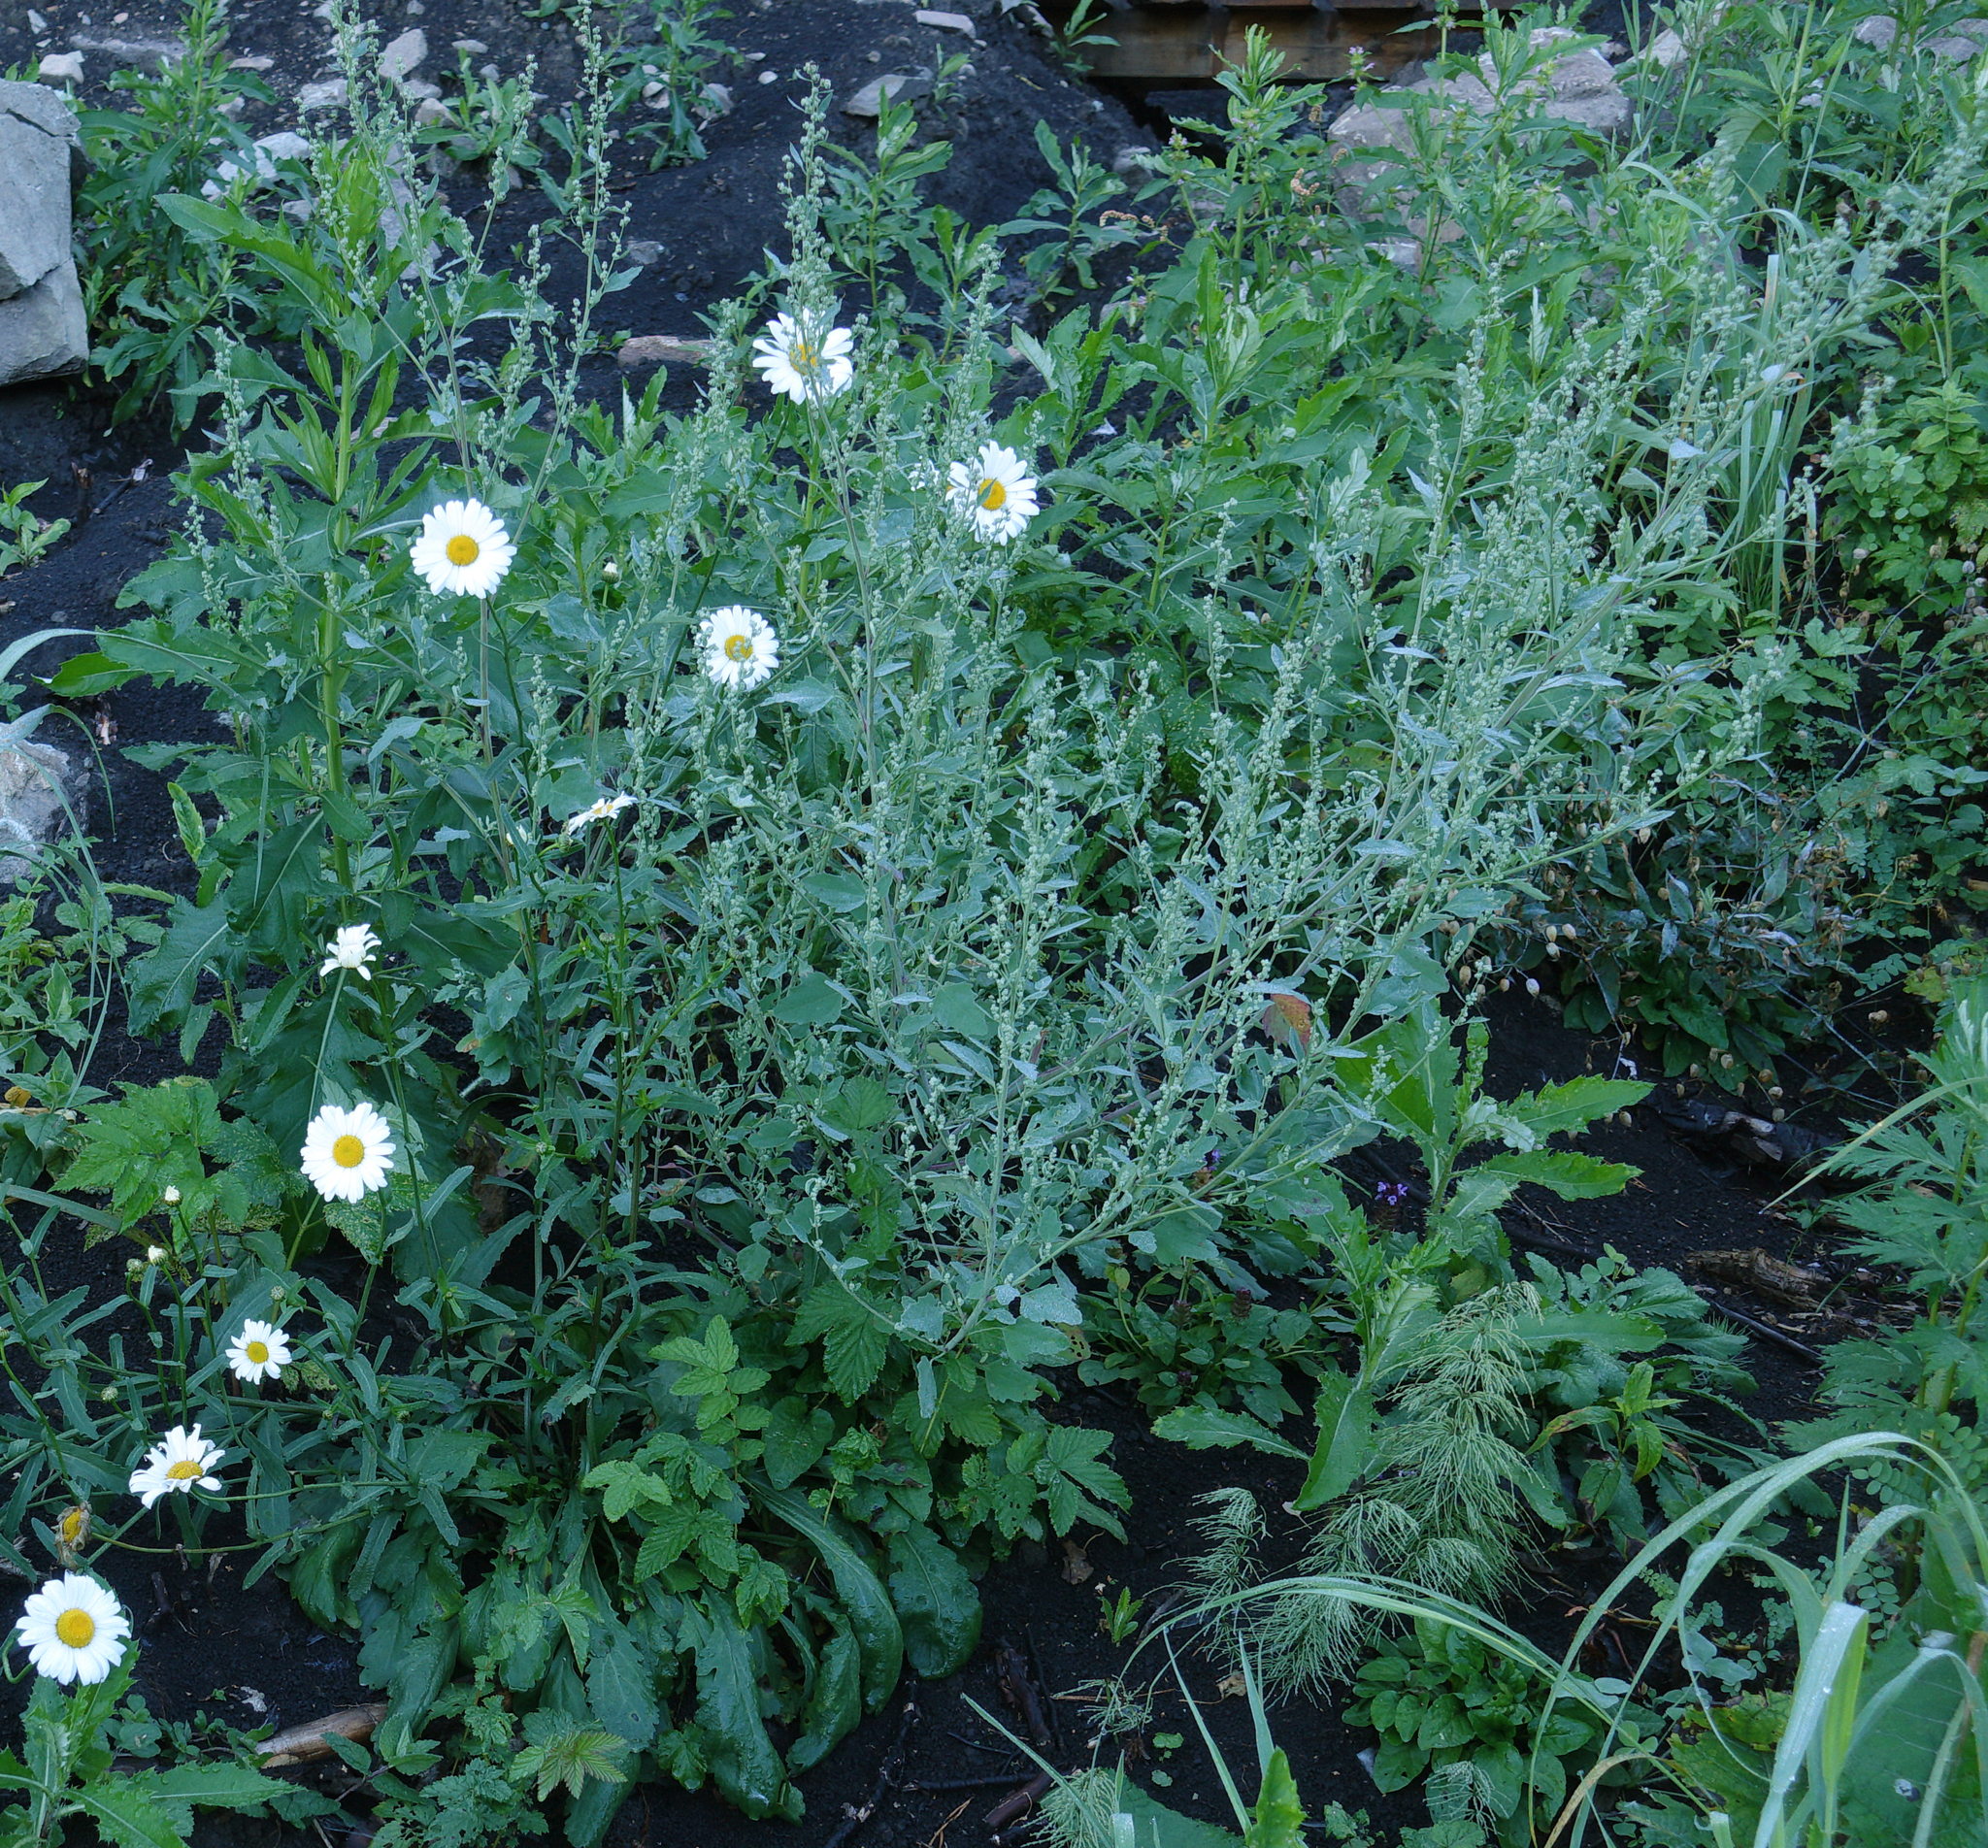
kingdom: Plantae
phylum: Tracheophyta
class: Magnoliopsida
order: Caryophyllales
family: Amaranthaceae
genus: Chenopodium
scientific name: Chenopodium album
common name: Fat-hen
